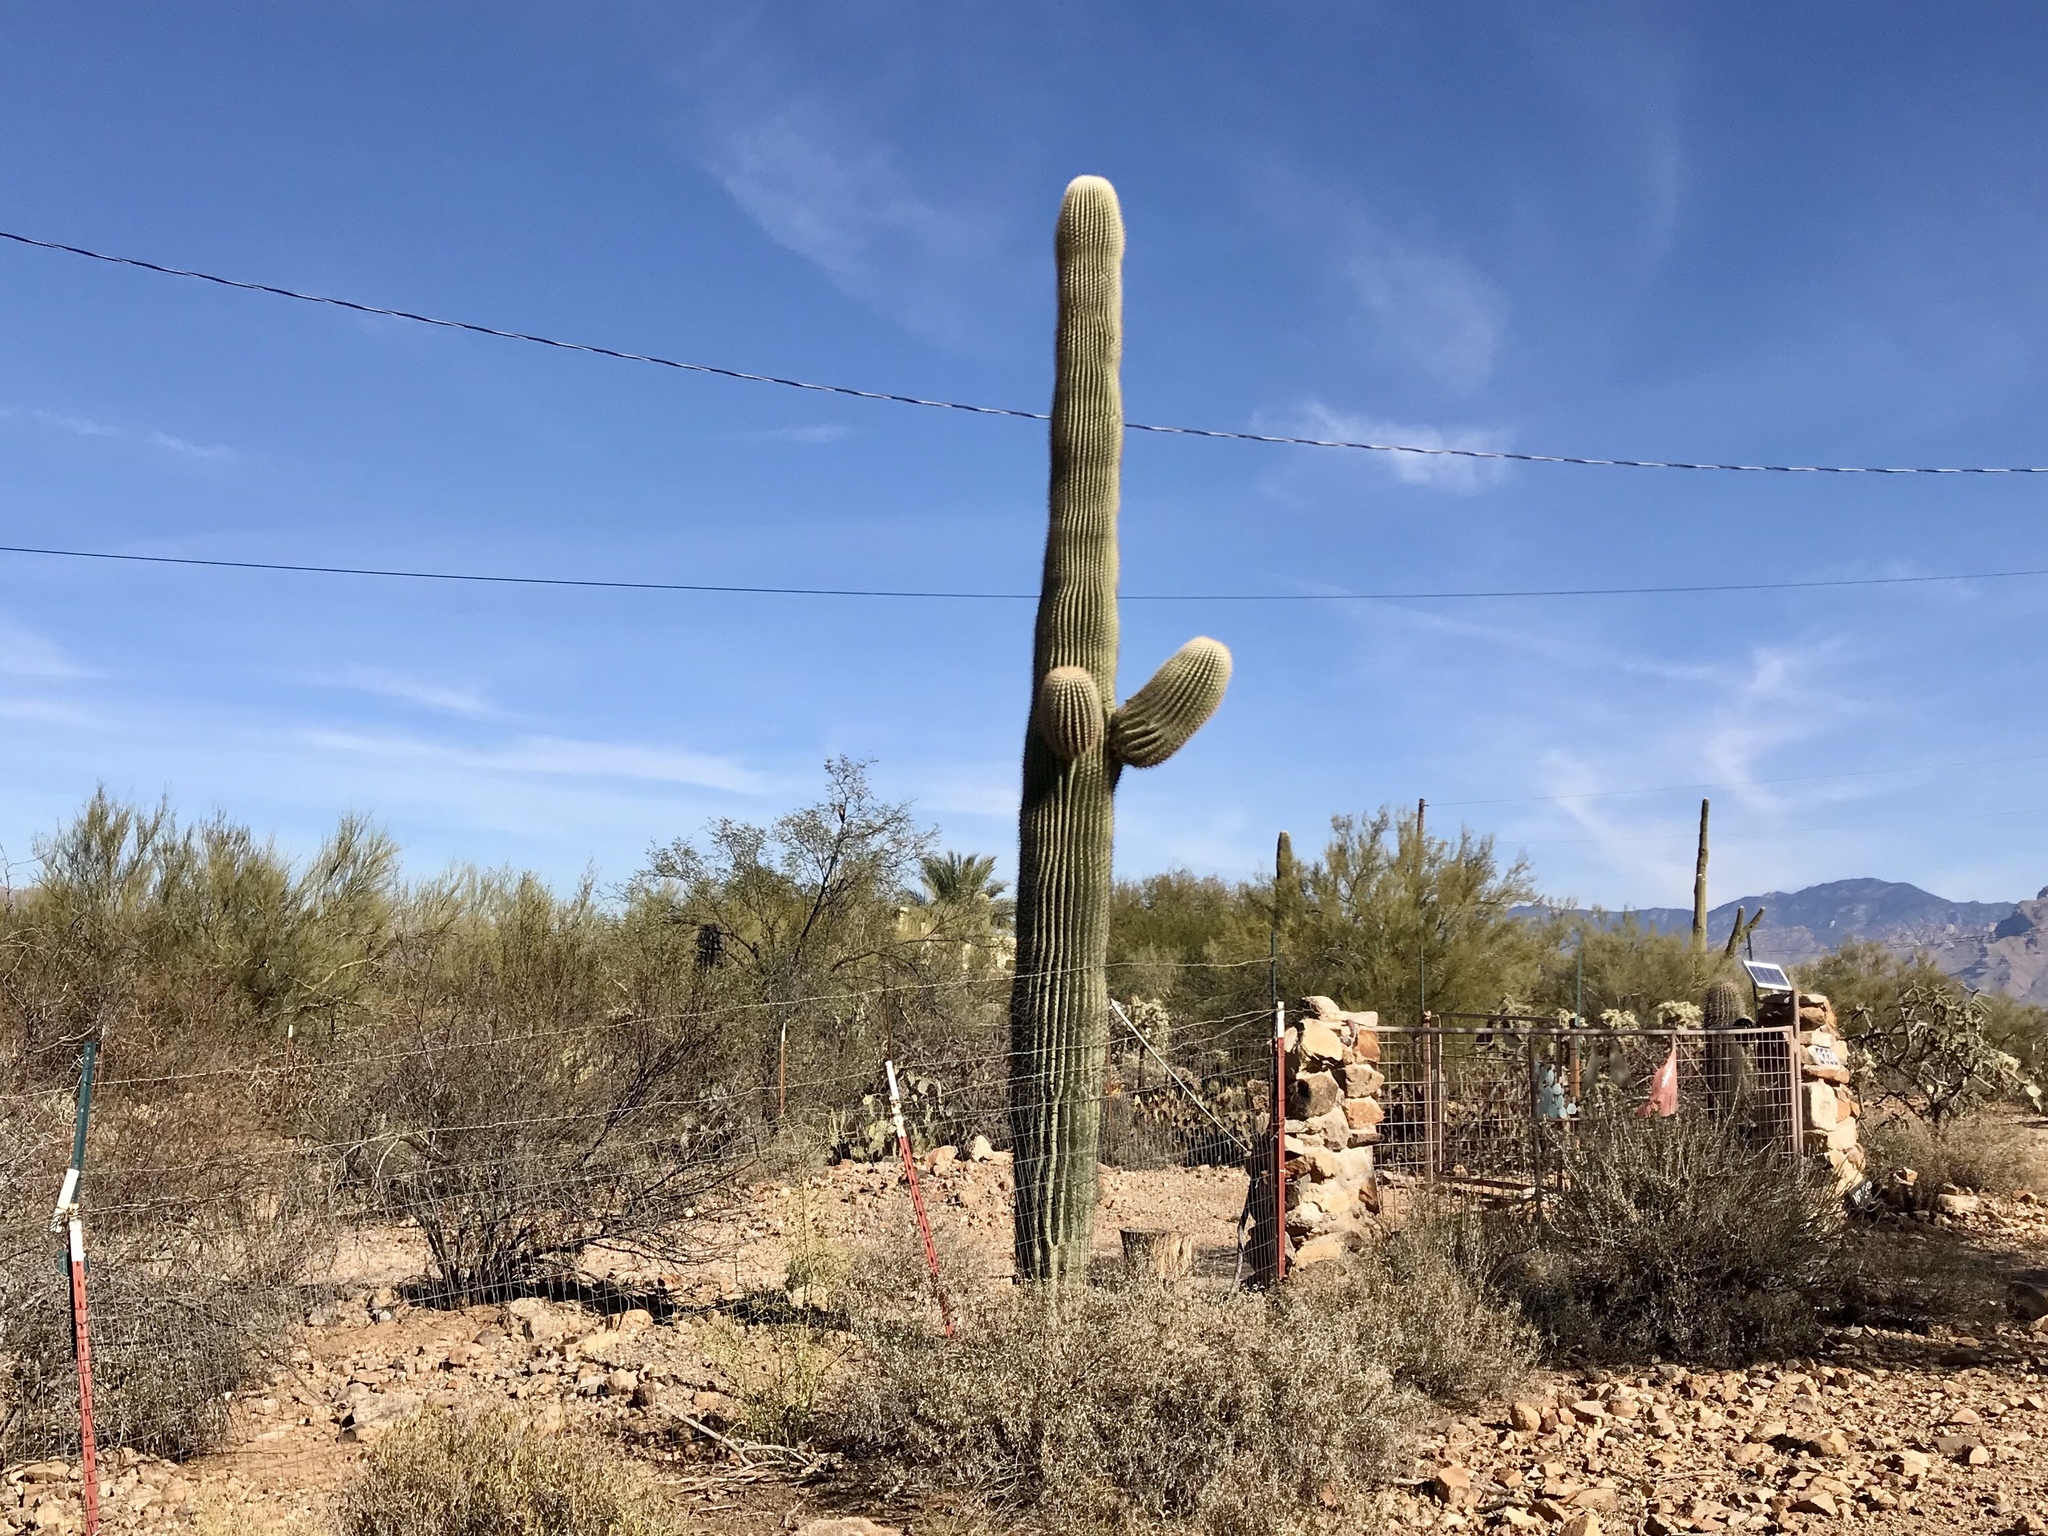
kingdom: Plantae
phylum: Tracheophyta
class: Magnoliopsida
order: Caryophyllales
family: Cactaceae
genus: Carnegiea
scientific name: Carnegiea gigantea
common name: Saguaro
